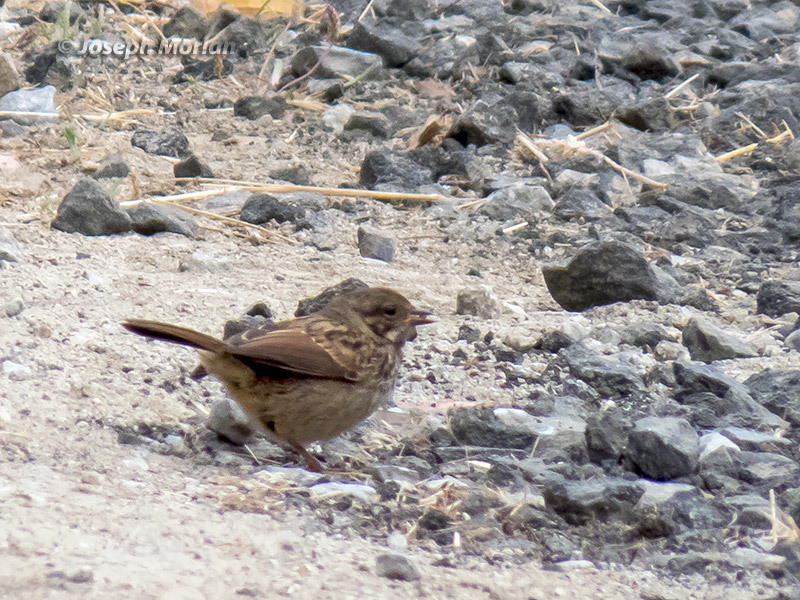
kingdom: Animalia
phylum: Chordata
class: Aves
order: Passeriformes
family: Passerellidae
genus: Melospiza
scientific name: Melospiza melodia
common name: Song sparrow
